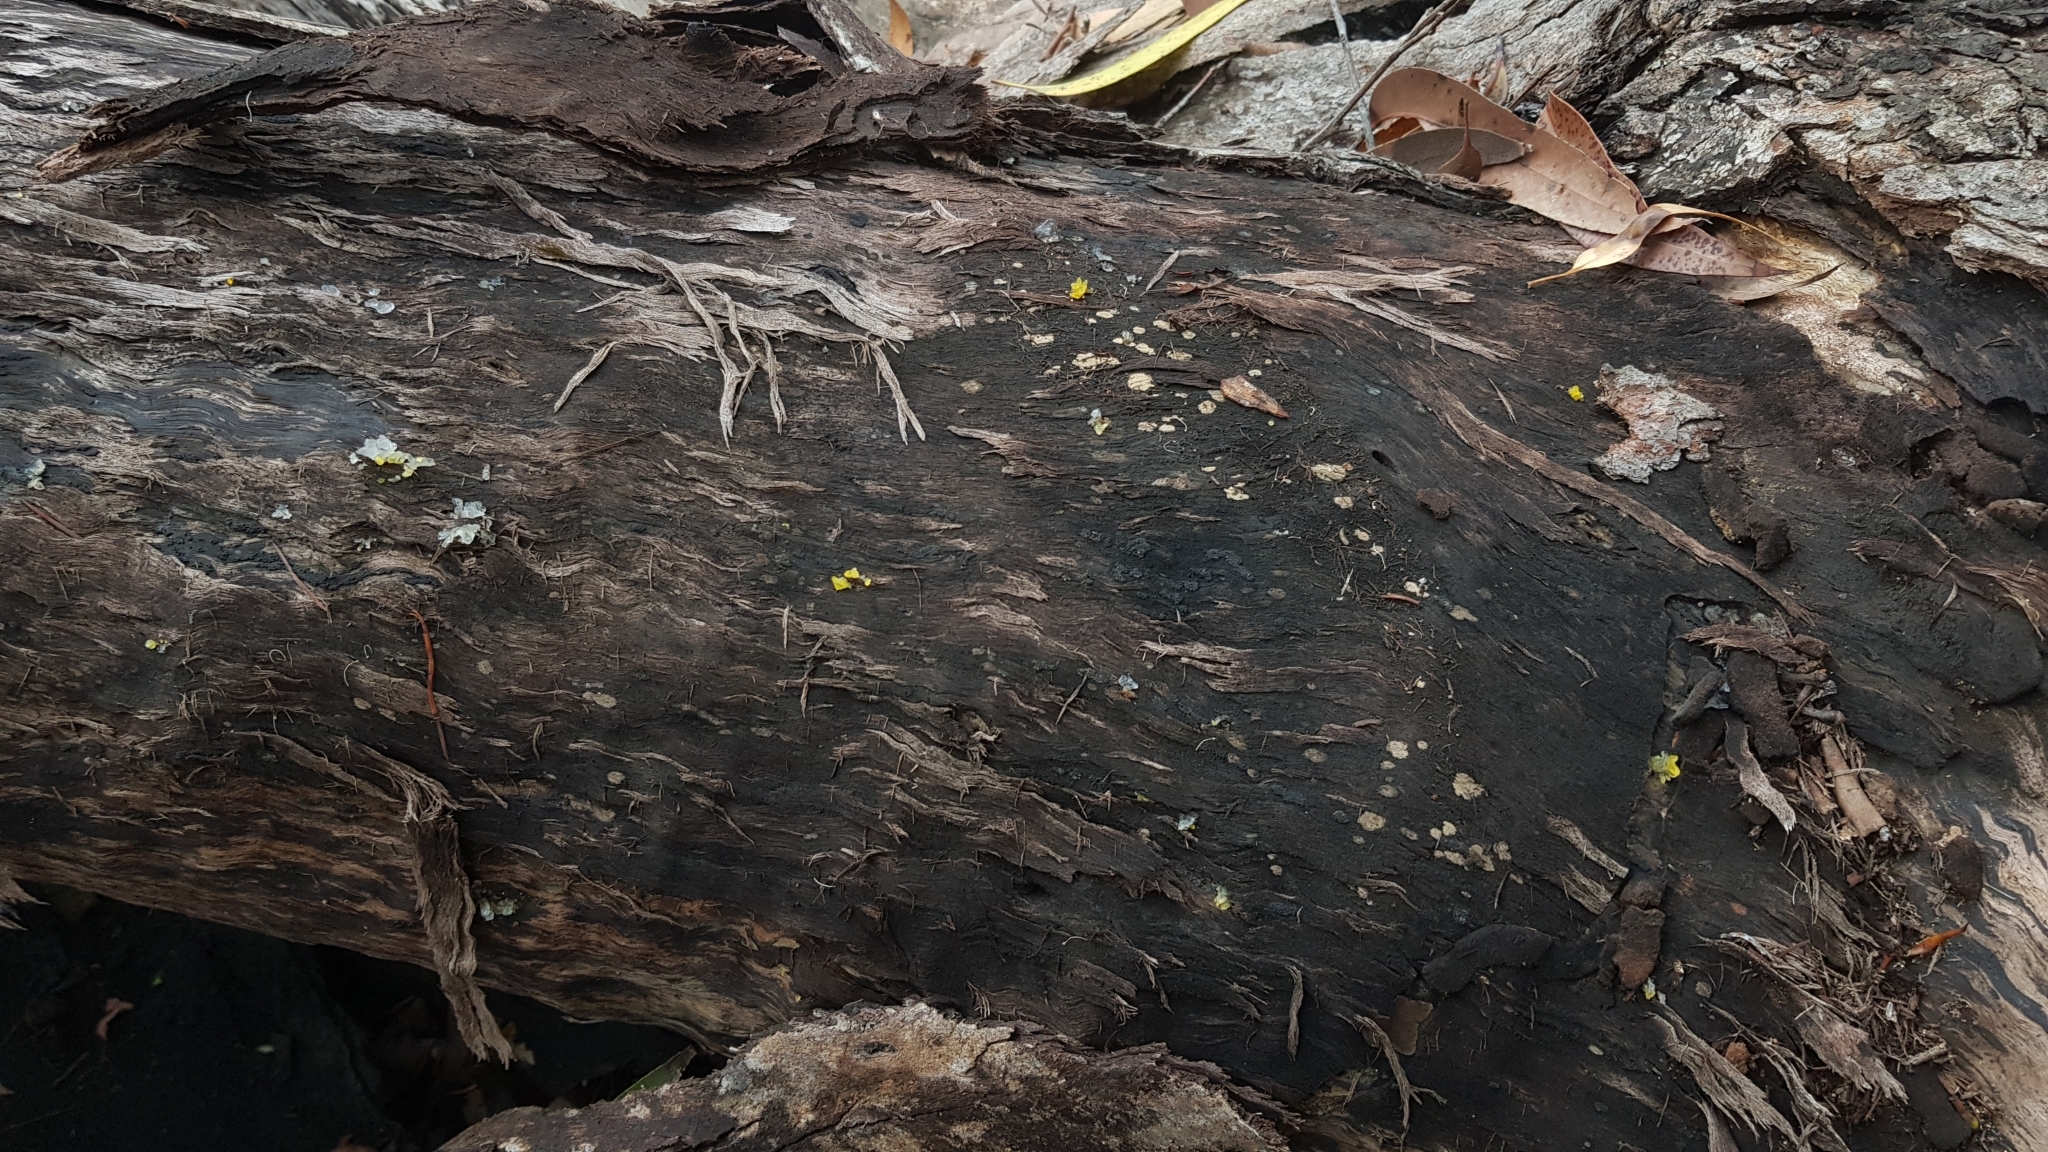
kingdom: Fungi
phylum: Basidiomycota
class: Tremellomycetes
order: Tremellales
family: Tremellaceae
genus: Tremella
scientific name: Tremella fuciformis
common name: Snow fungus
